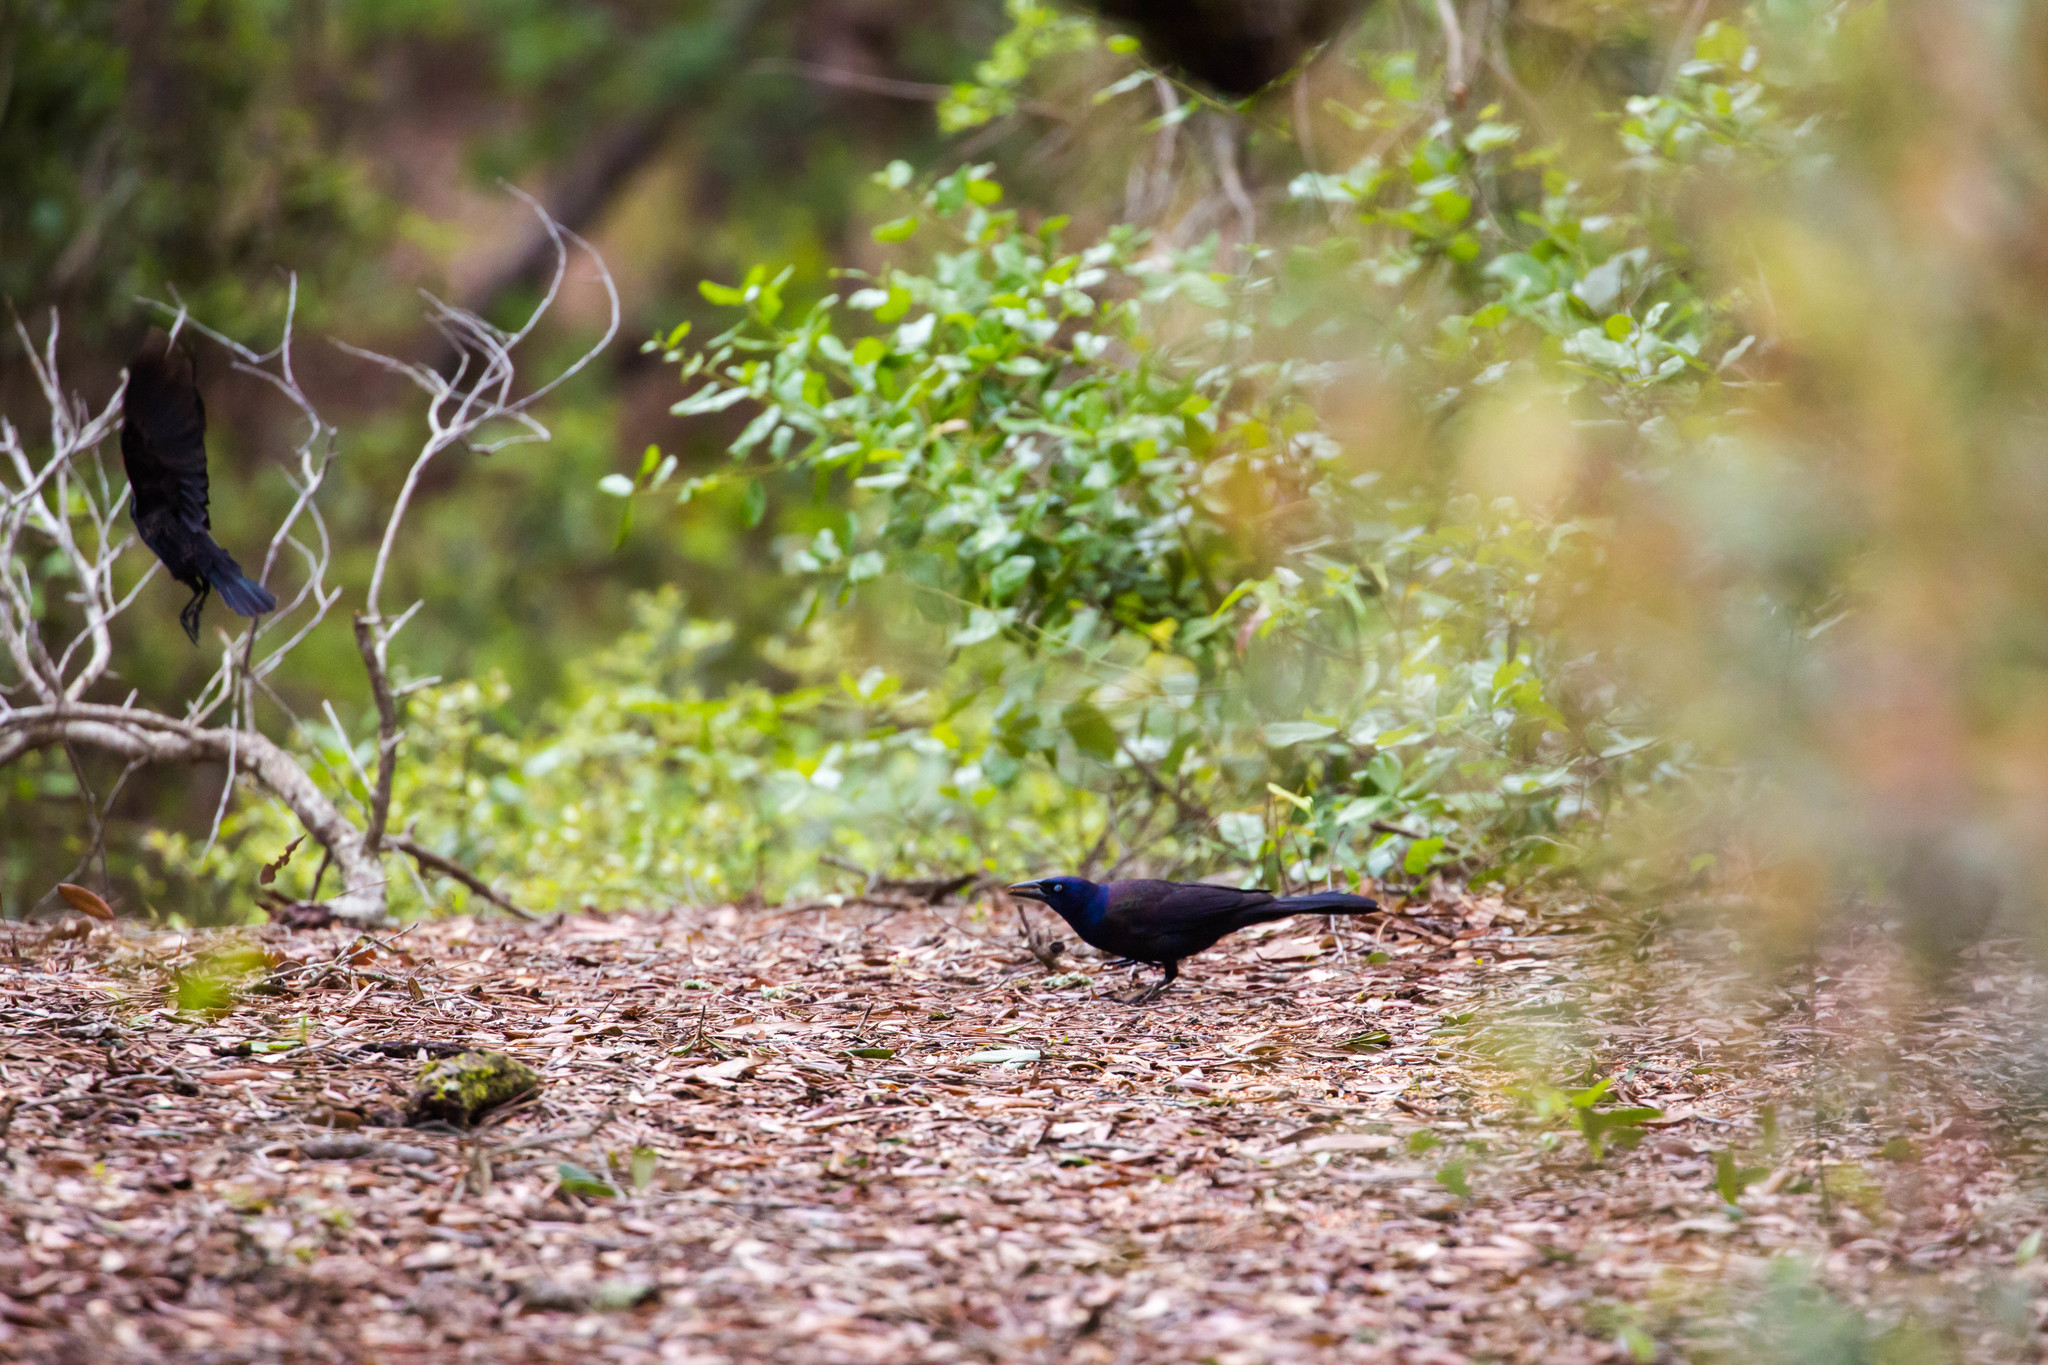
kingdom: Animalia
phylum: Chordata
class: Aves
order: Passeriformes
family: Icteridae
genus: Quiscalus
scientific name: Quiscalus quiscula
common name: Common grackle
